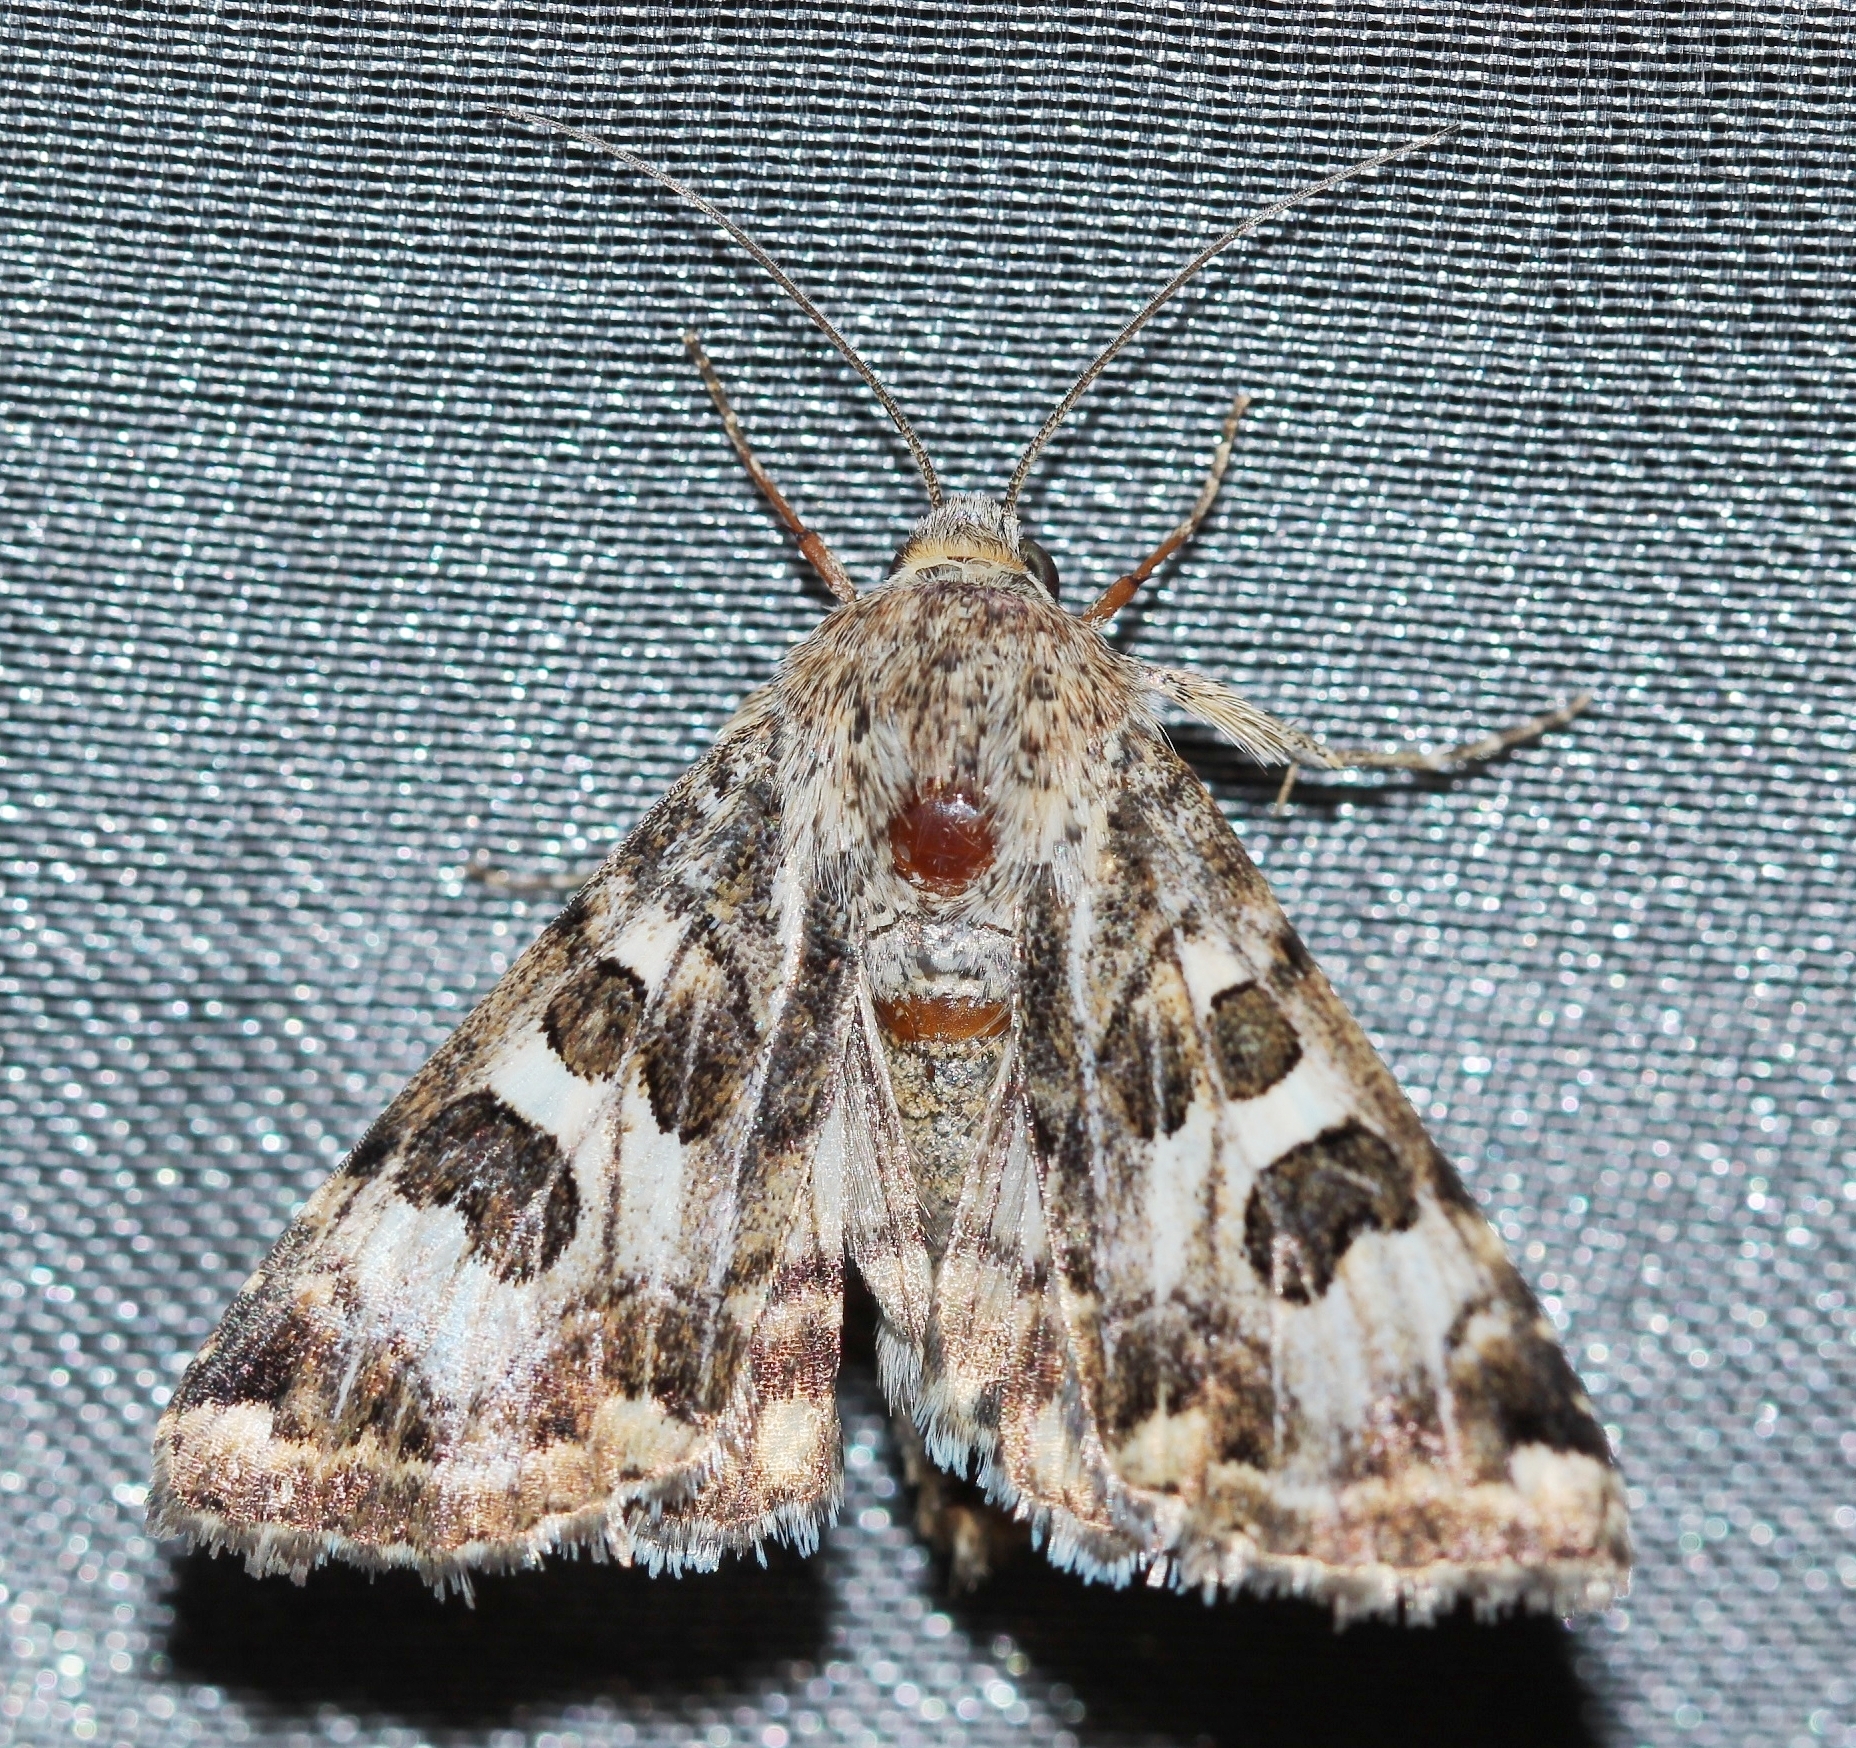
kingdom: Animalia
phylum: Arthropoda
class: Insecta
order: Lepidoptera
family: Noctuidae
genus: Protoschinia
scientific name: Protoschinia scutosa
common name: Spotted clover
